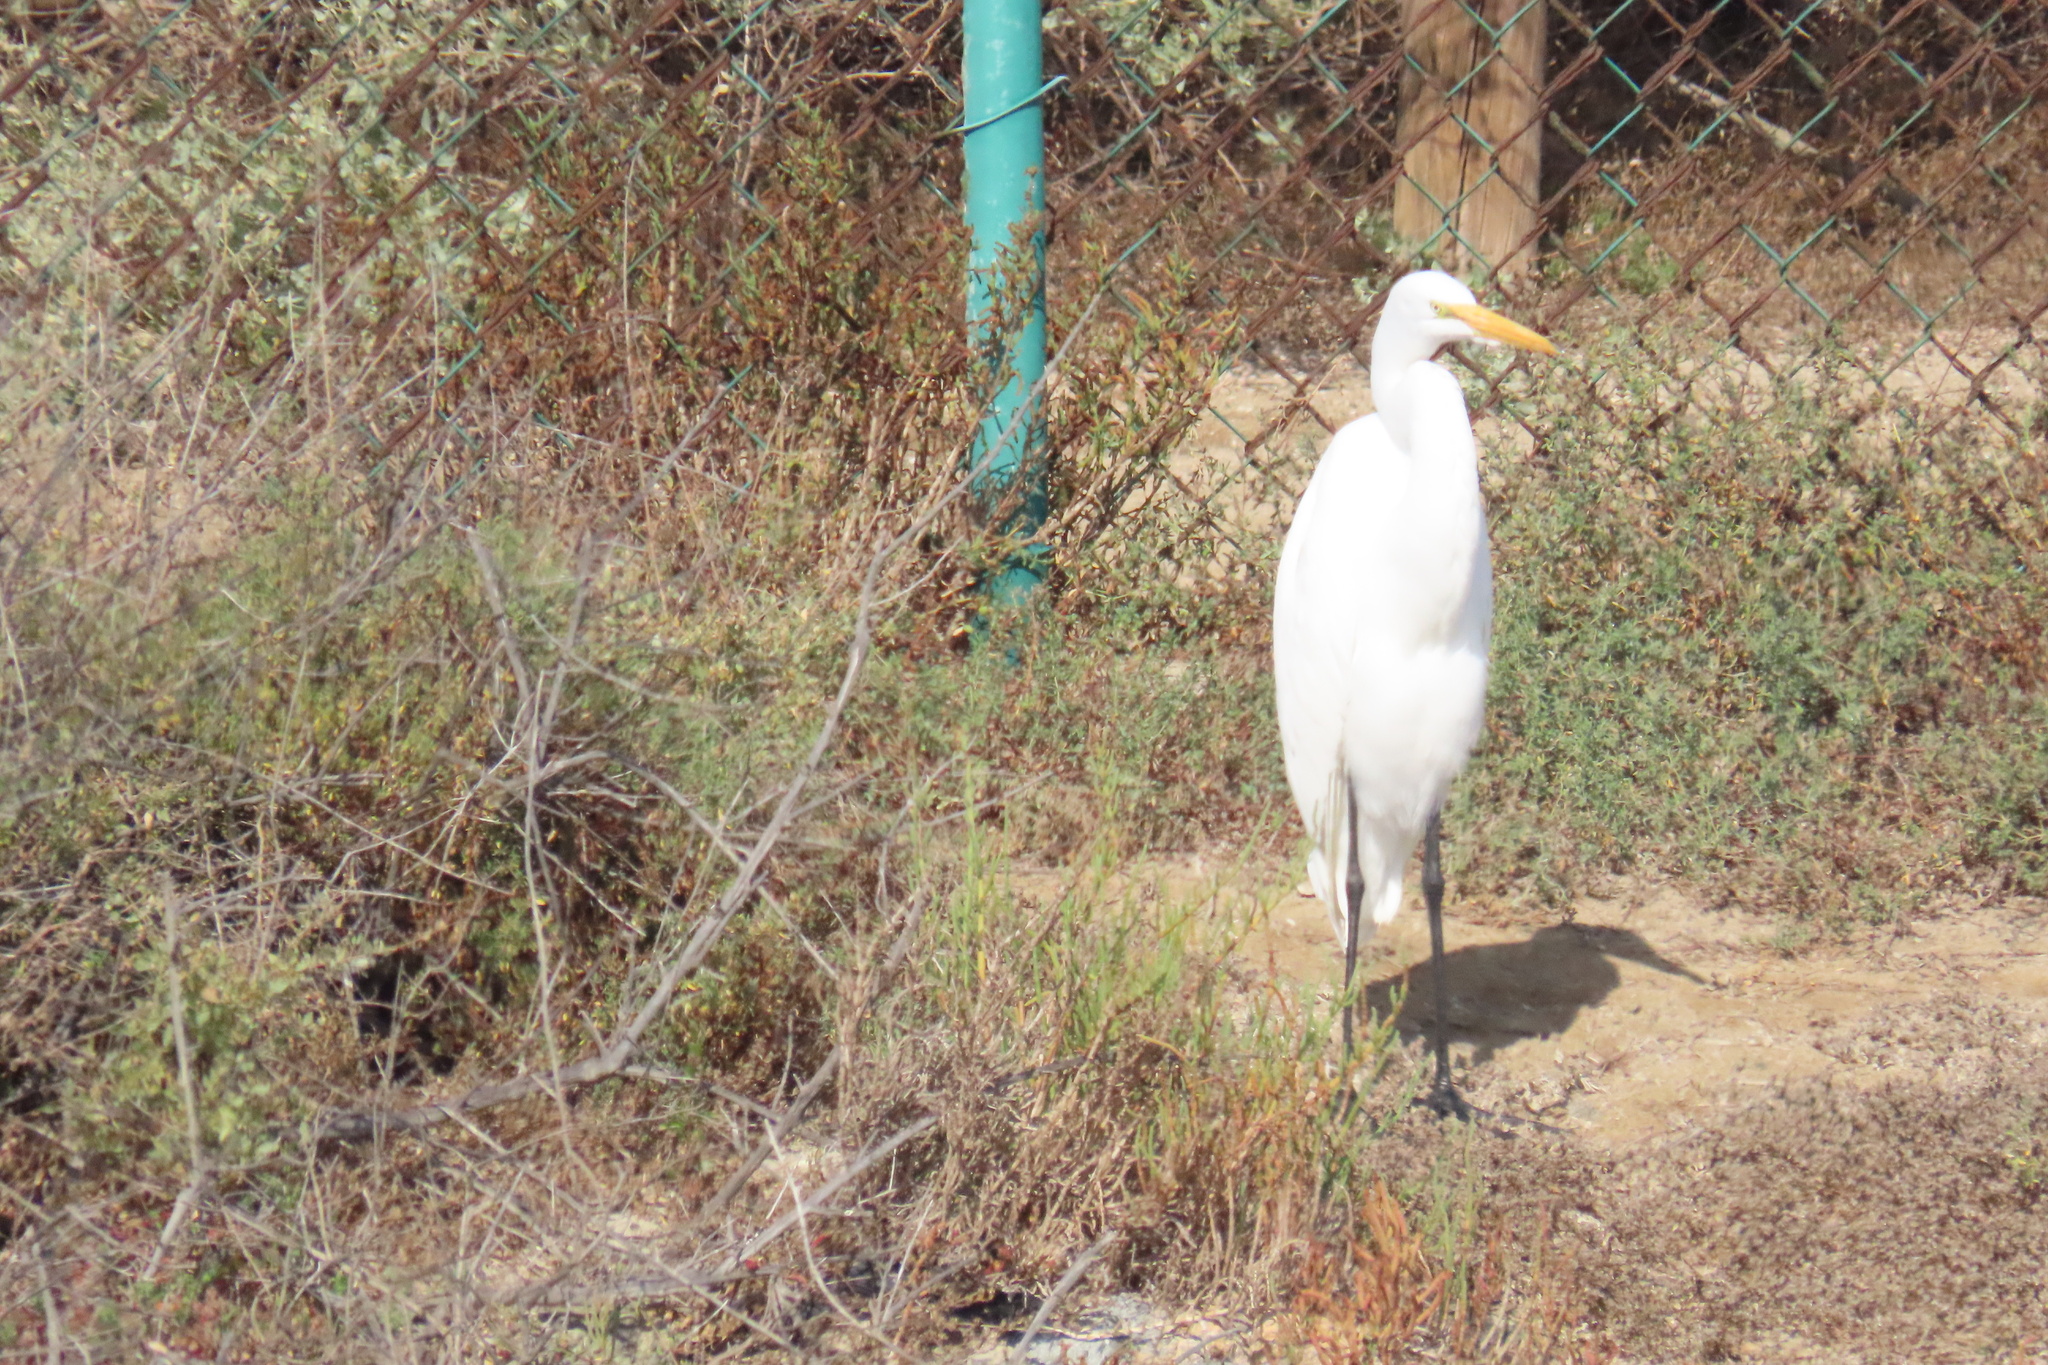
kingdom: Animalia
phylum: Chordata
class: Aves
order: Pelecaniformes
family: Ardeidae
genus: Ardea
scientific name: Ardea alba
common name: Great egret
